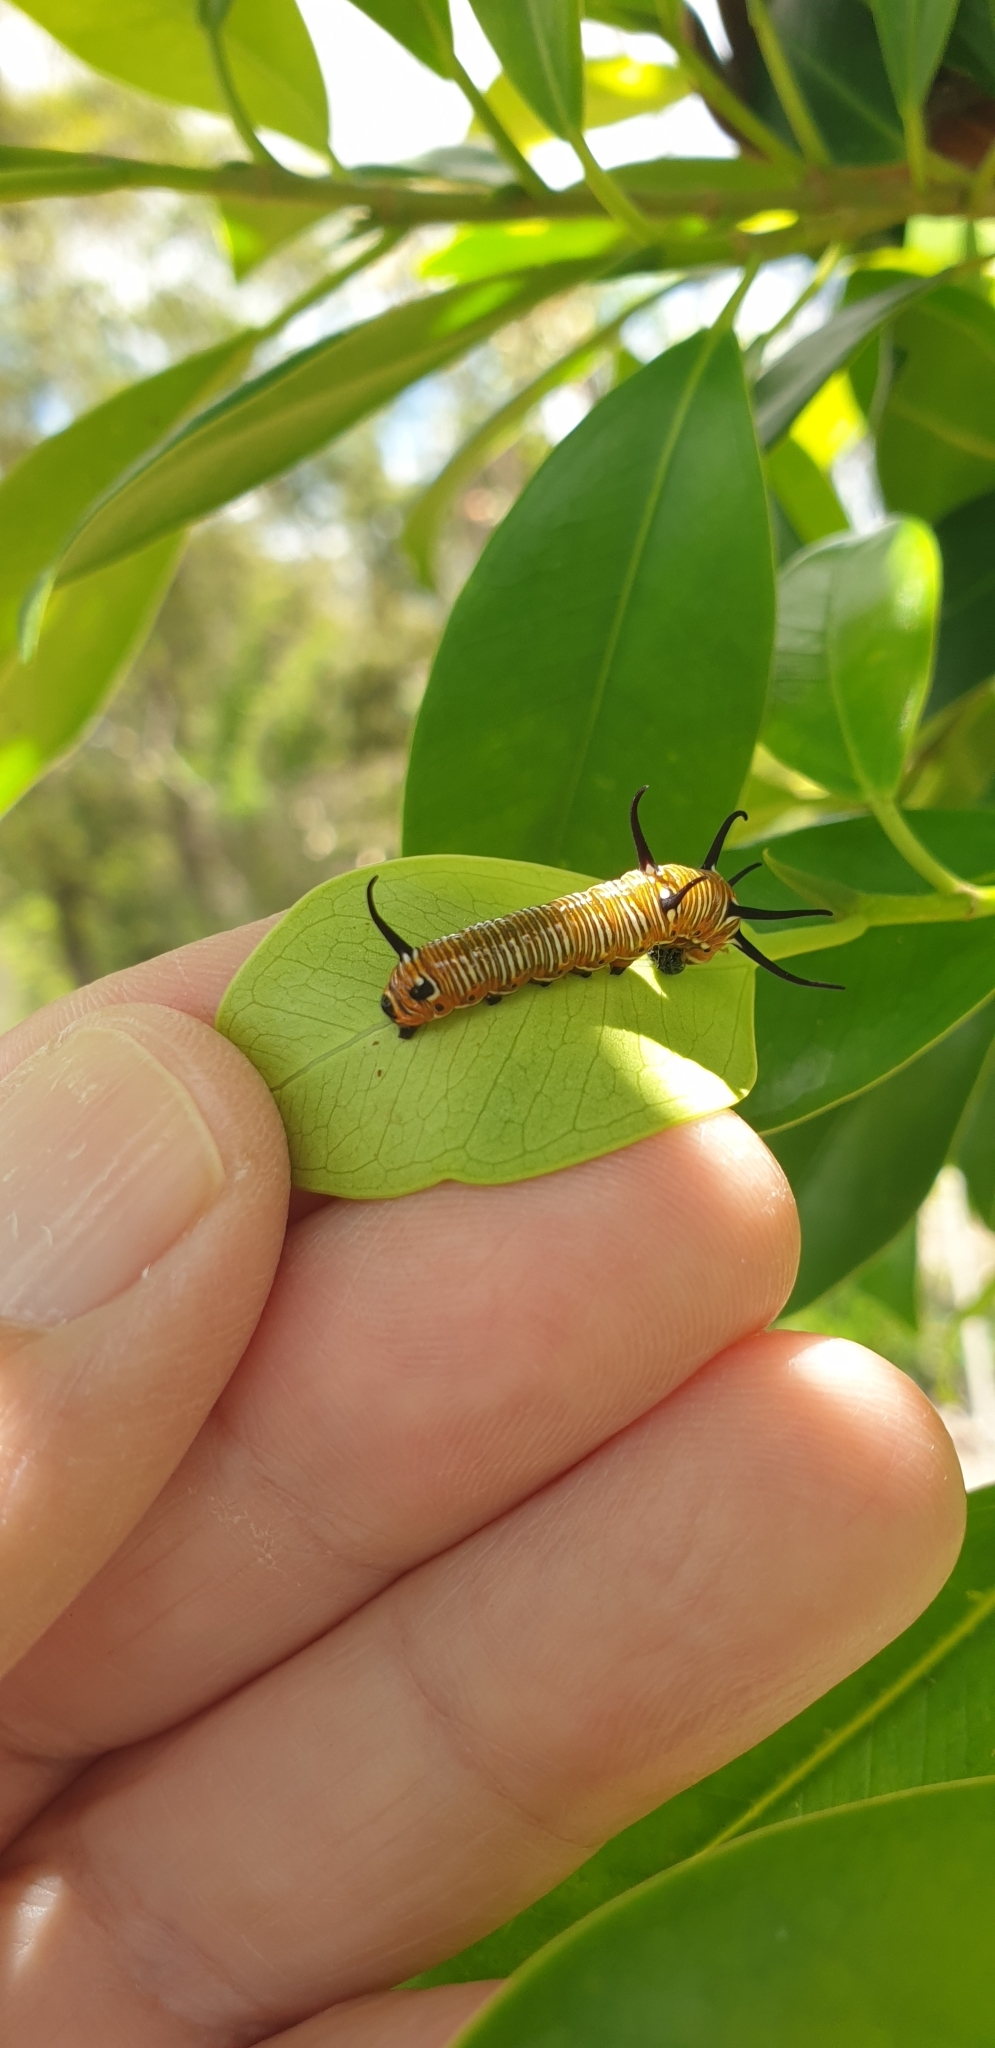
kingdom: Animalia
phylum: Arthropoda
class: Insecta
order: Lepidoptera
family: Nymphalidae
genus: Euploea
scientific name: Euploea core
